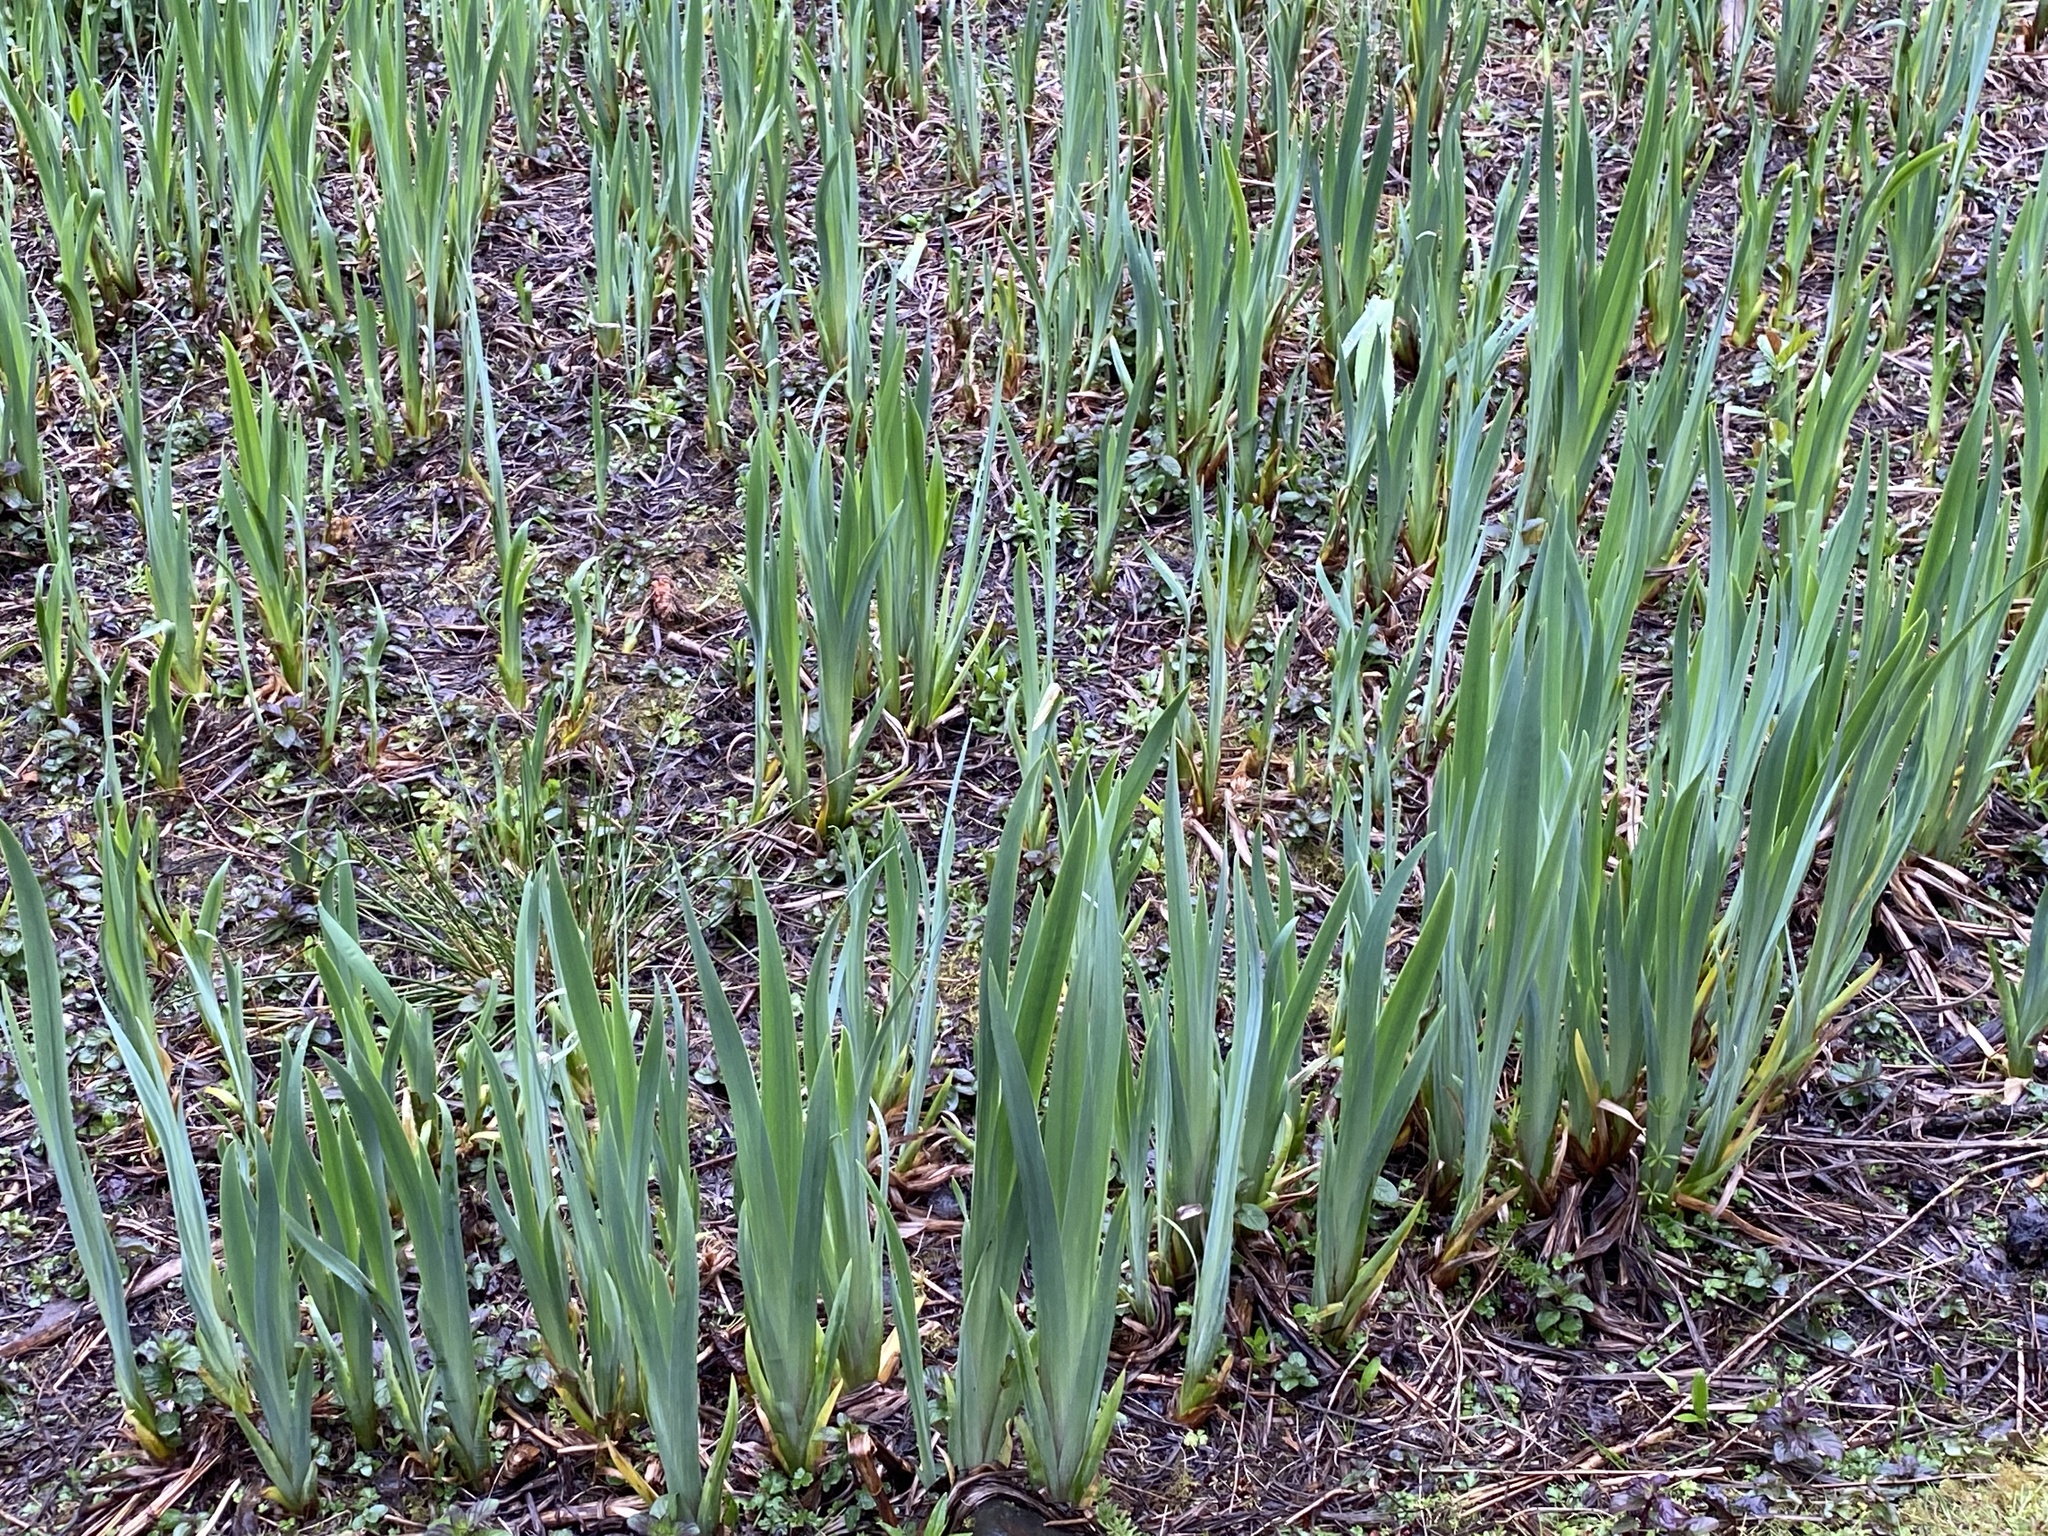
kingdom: Plantae
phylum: Tracheophyta
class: Liliopsida
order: Asparagales
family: Iridaceae
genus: Iris
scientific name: Iris pseudacorus
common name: Yellow flag
